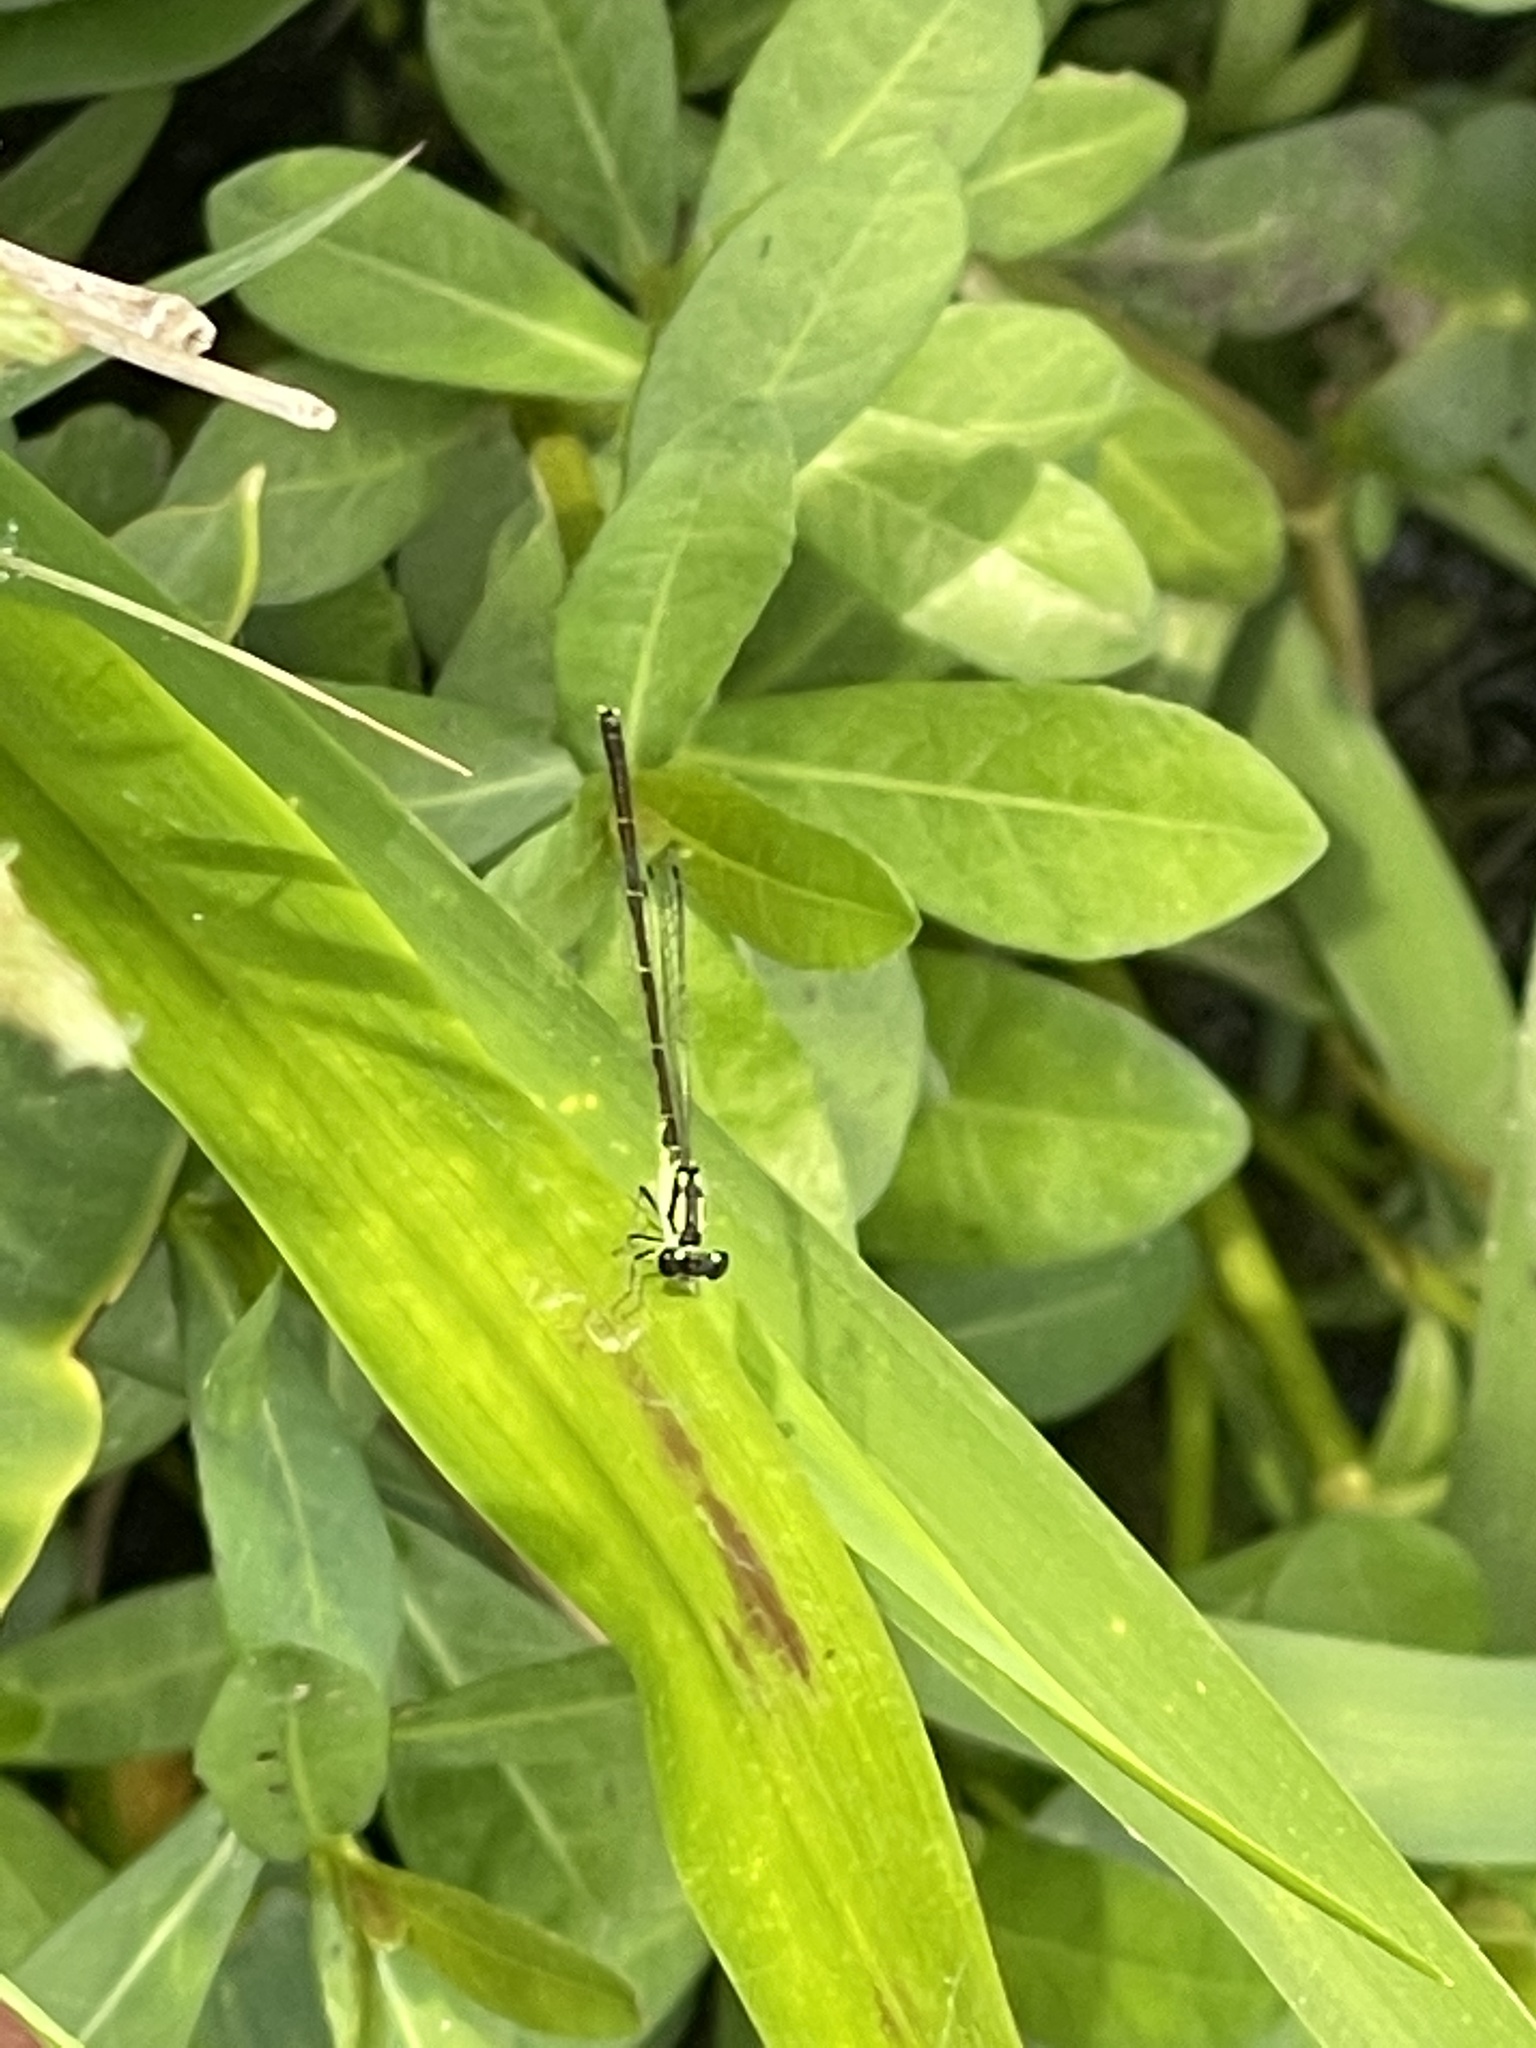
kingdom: Animalia
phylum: Arthropoda
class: Insecta
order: Odonata
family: Coenagrionidae
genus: Ischnura
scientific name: Ischnura posita
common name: Fragile forktail
